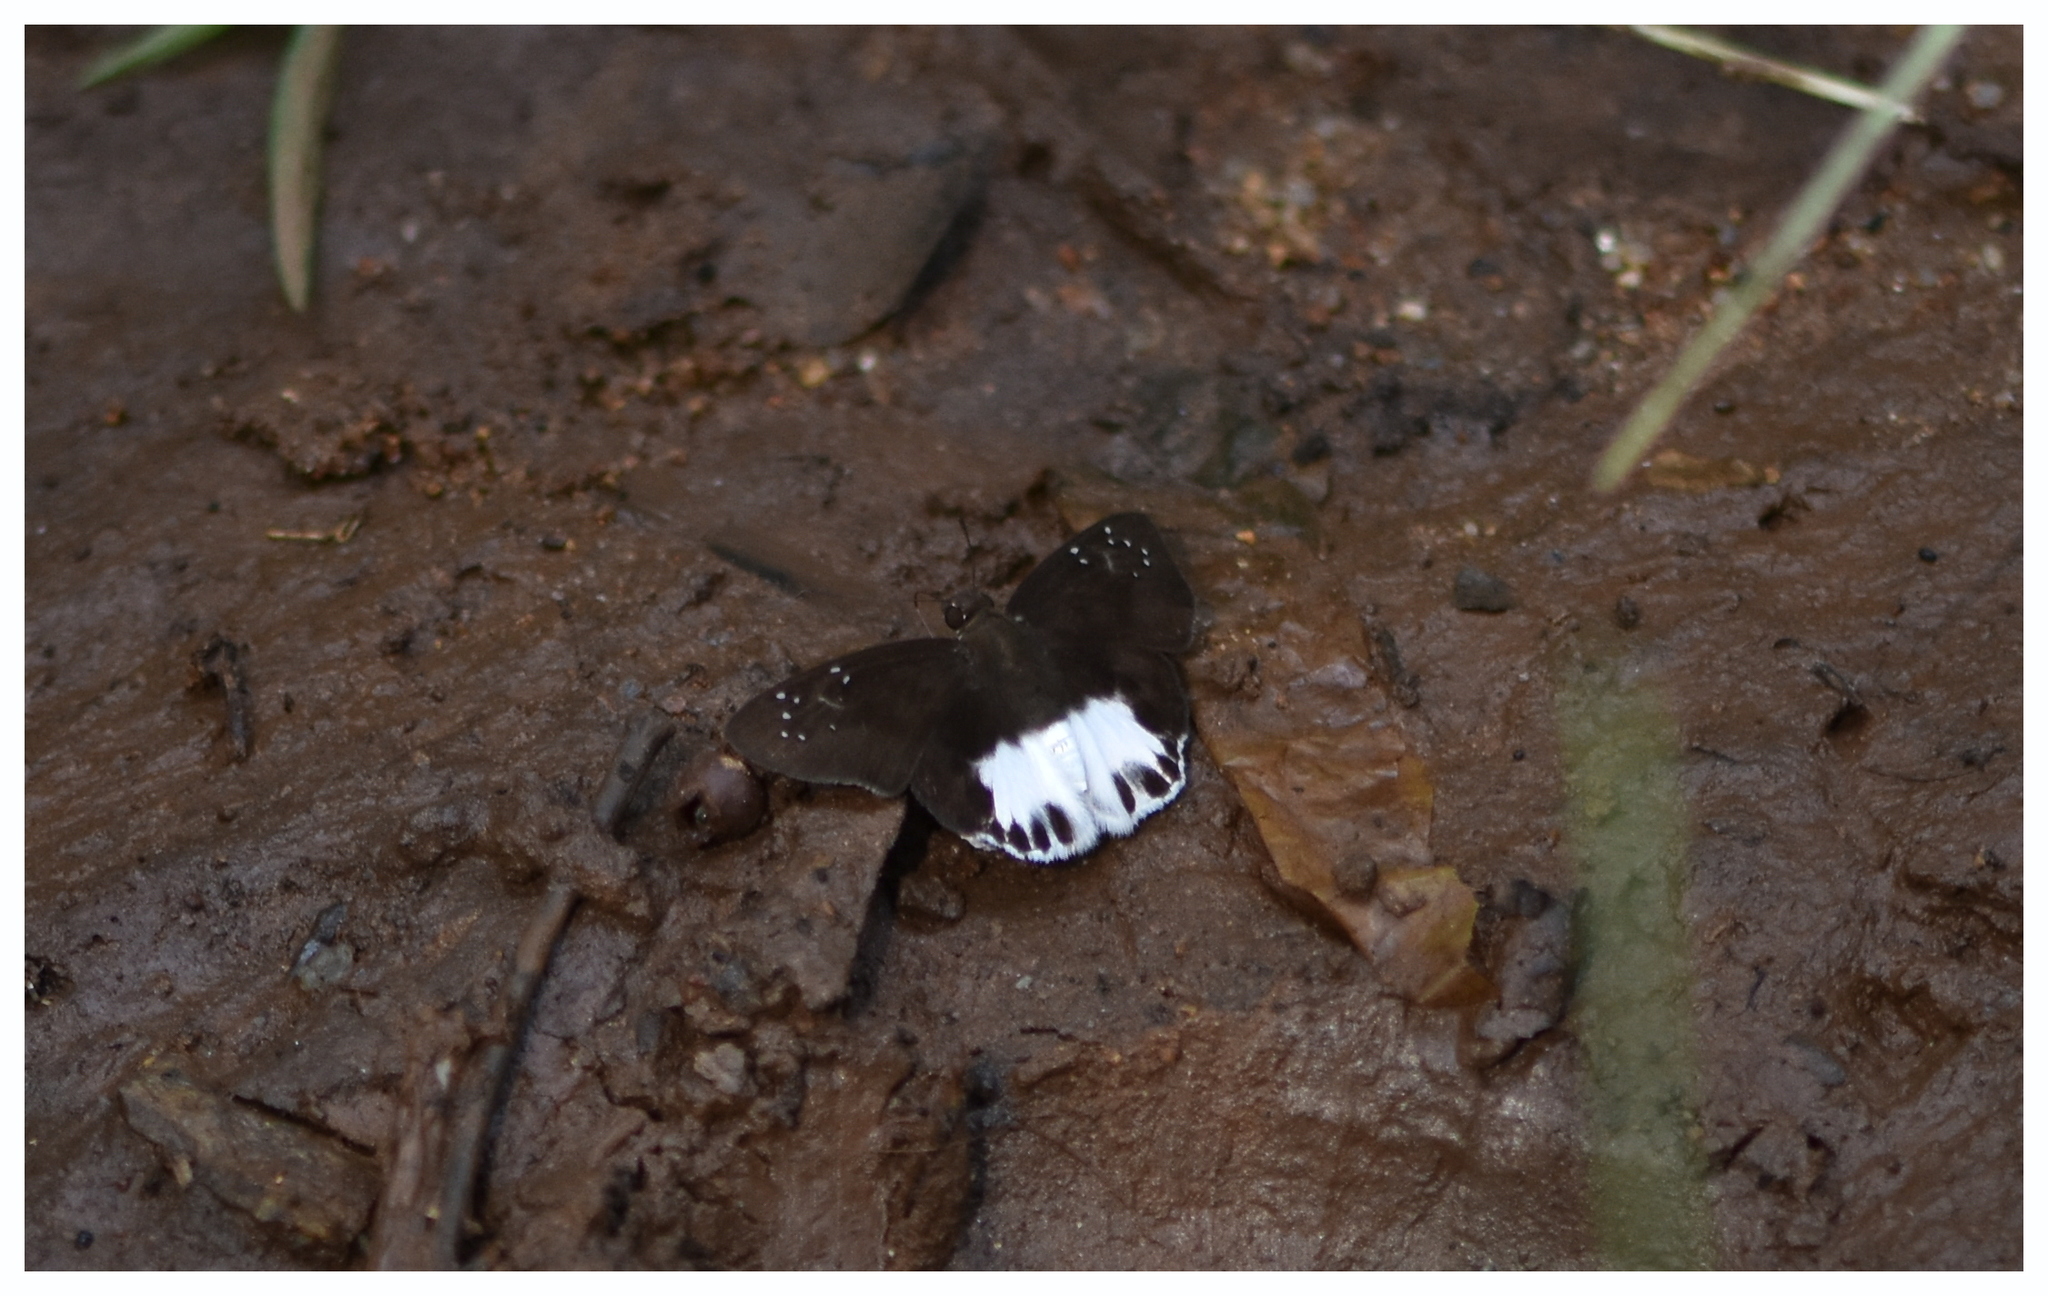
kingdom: Animalia
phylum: Arthropoda
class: Insecta
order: Lepidoptera
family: Hesperiidae
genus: Tagiades
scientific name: Tagiades litigiosa
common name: Water snow flat
